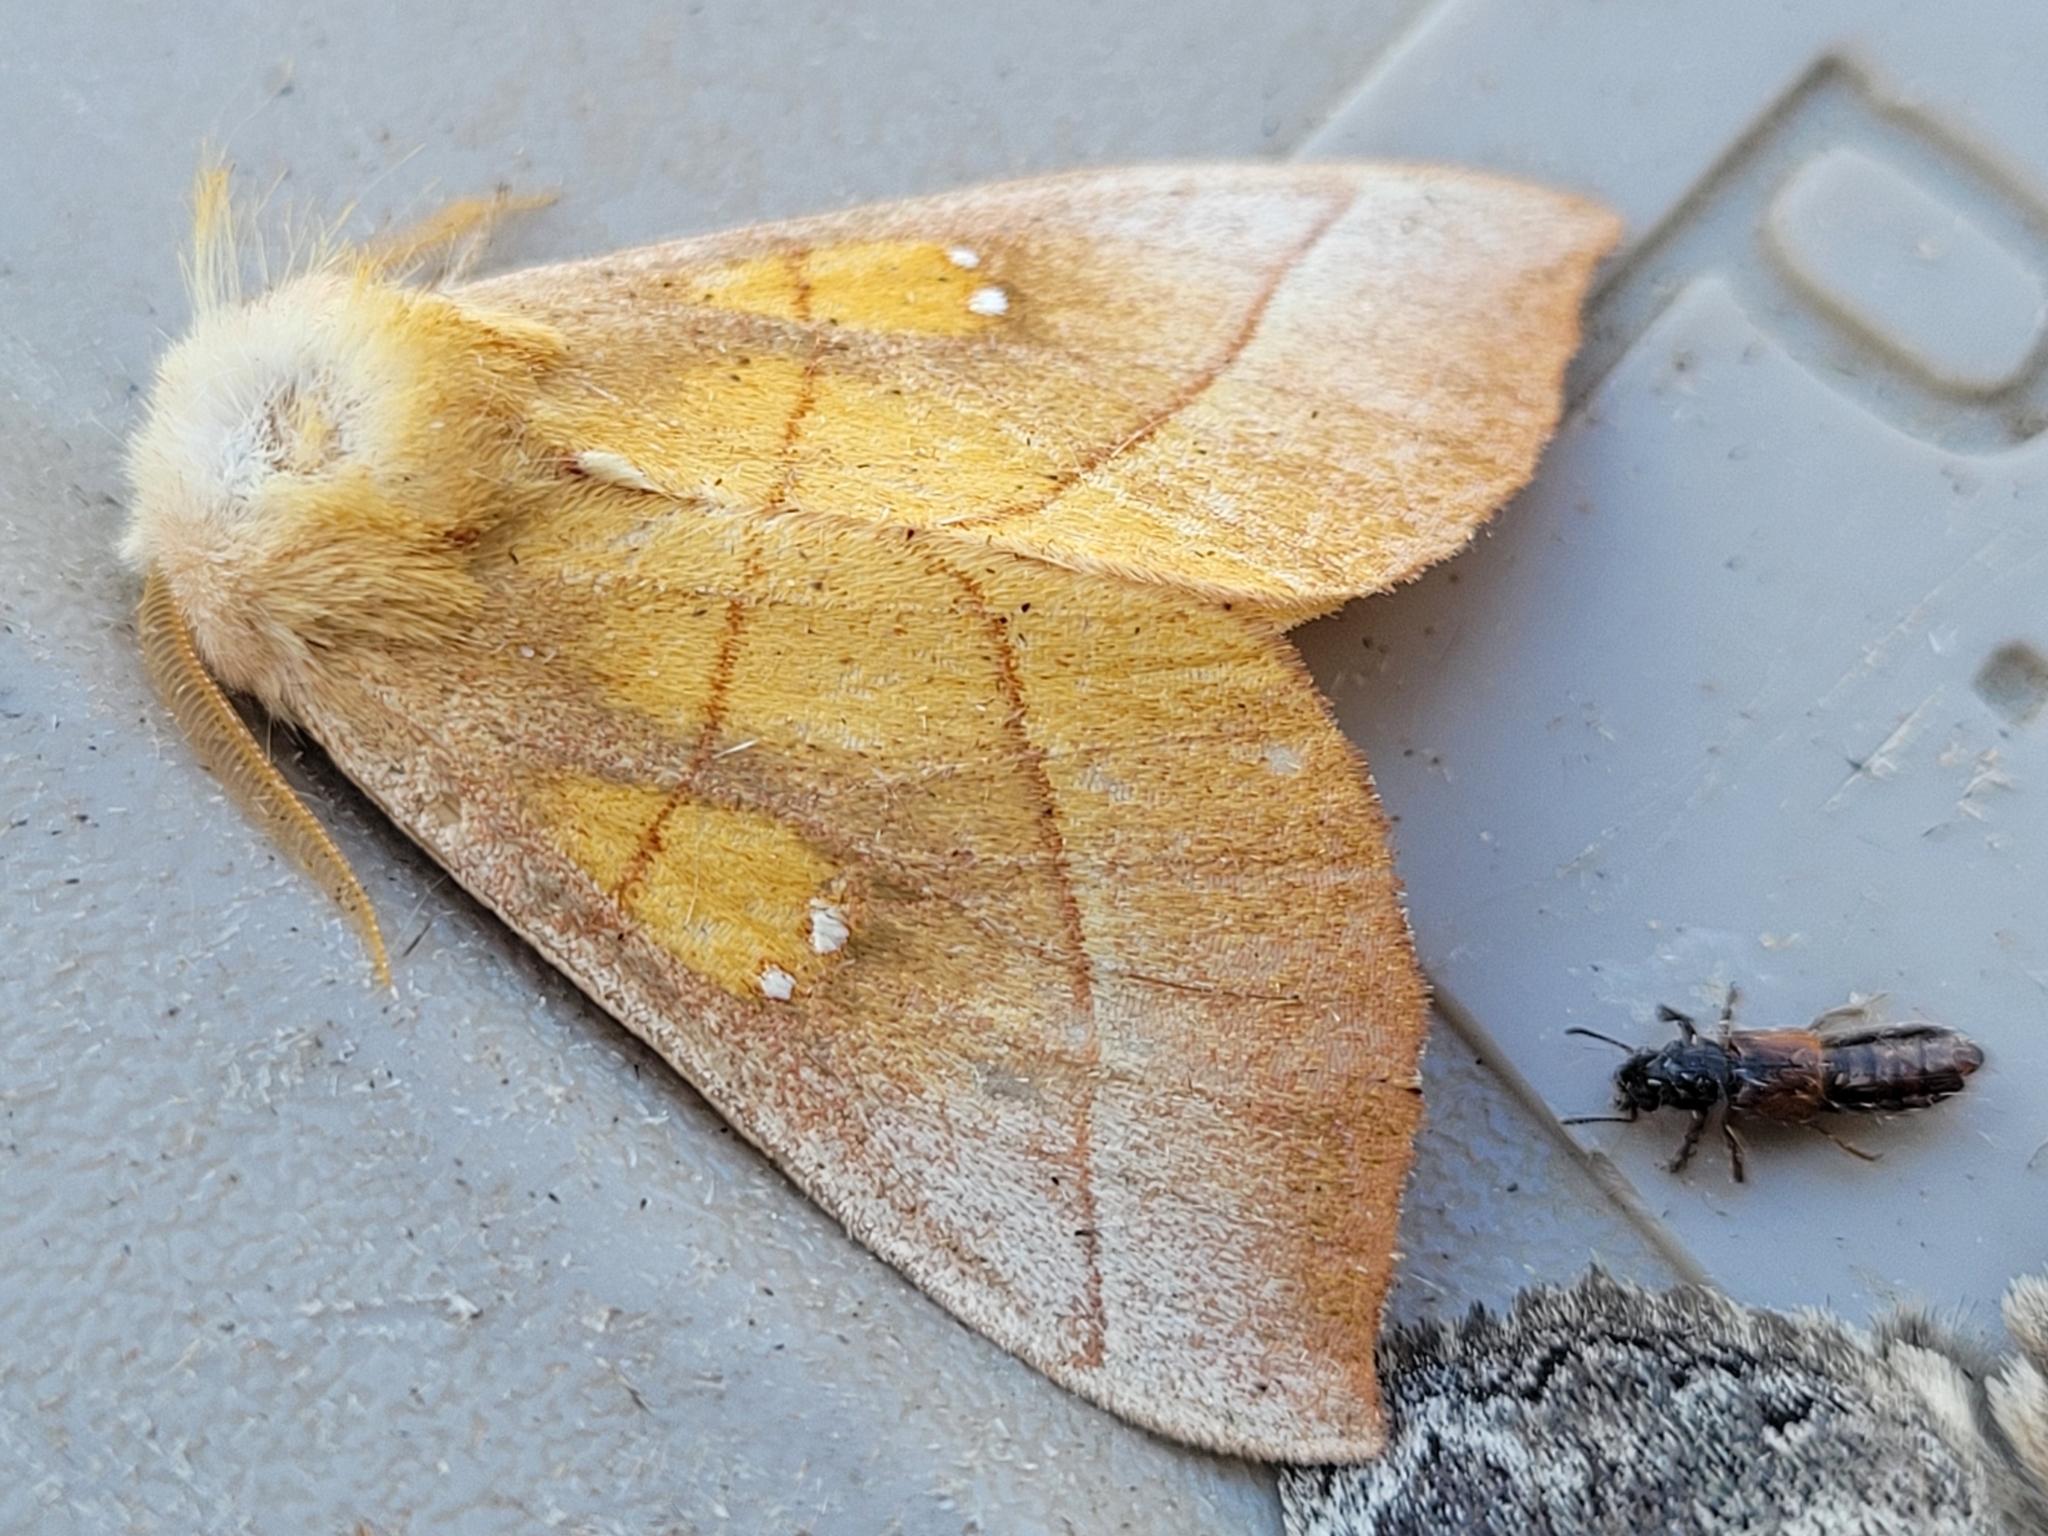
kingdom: Animalia
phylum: Arthropoda
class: Insecta
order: Lepidoptera
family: Notodontidae
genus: Nadata
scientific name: Nadata gibbosa
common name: White-dotted prominent
